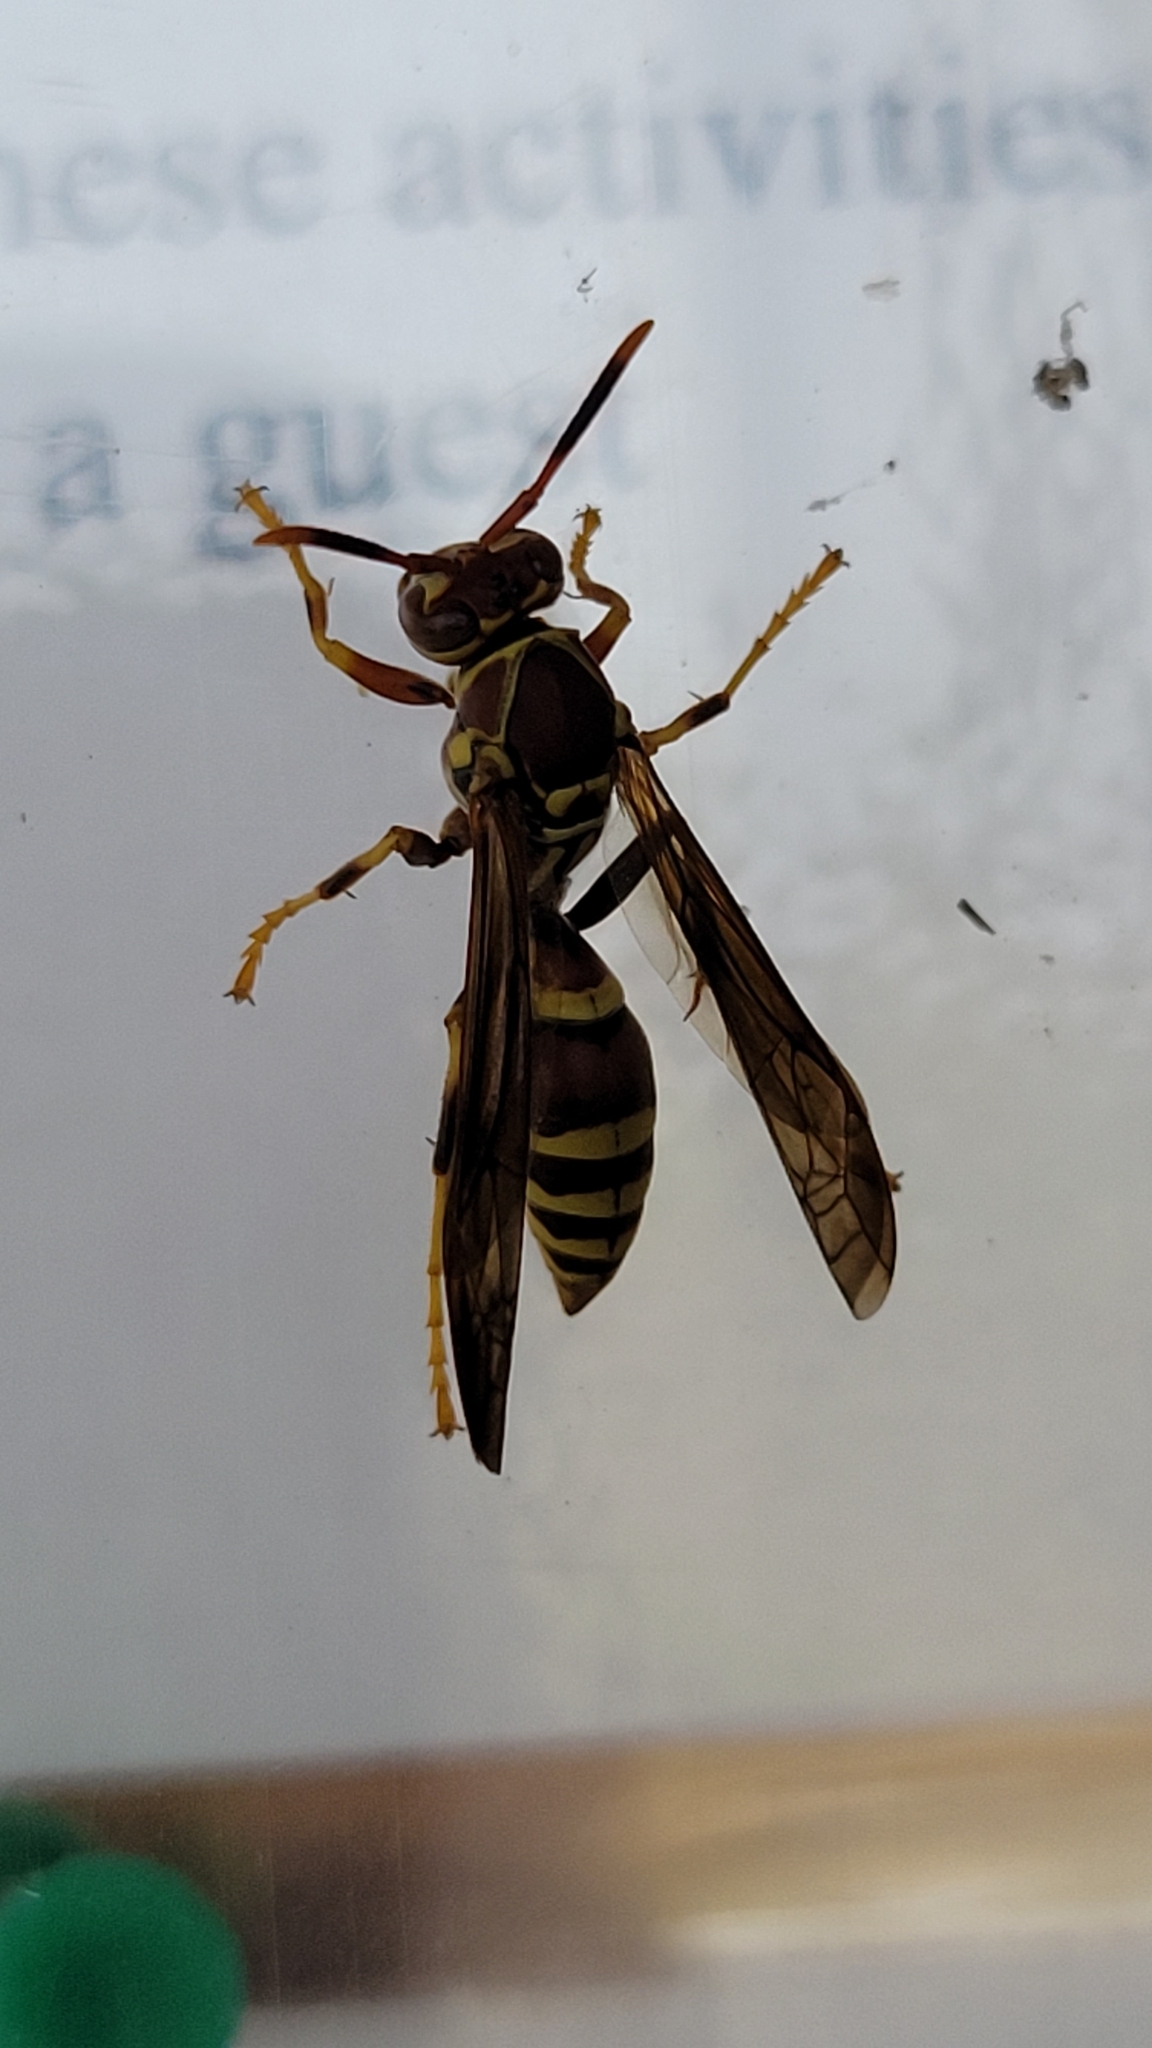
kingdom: Animalia
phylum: Arthropoda
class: Insecta
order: Hymenoptera
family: Eumenidae
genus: Polistes
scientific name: Polistes exclamans
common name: Paper wasp
